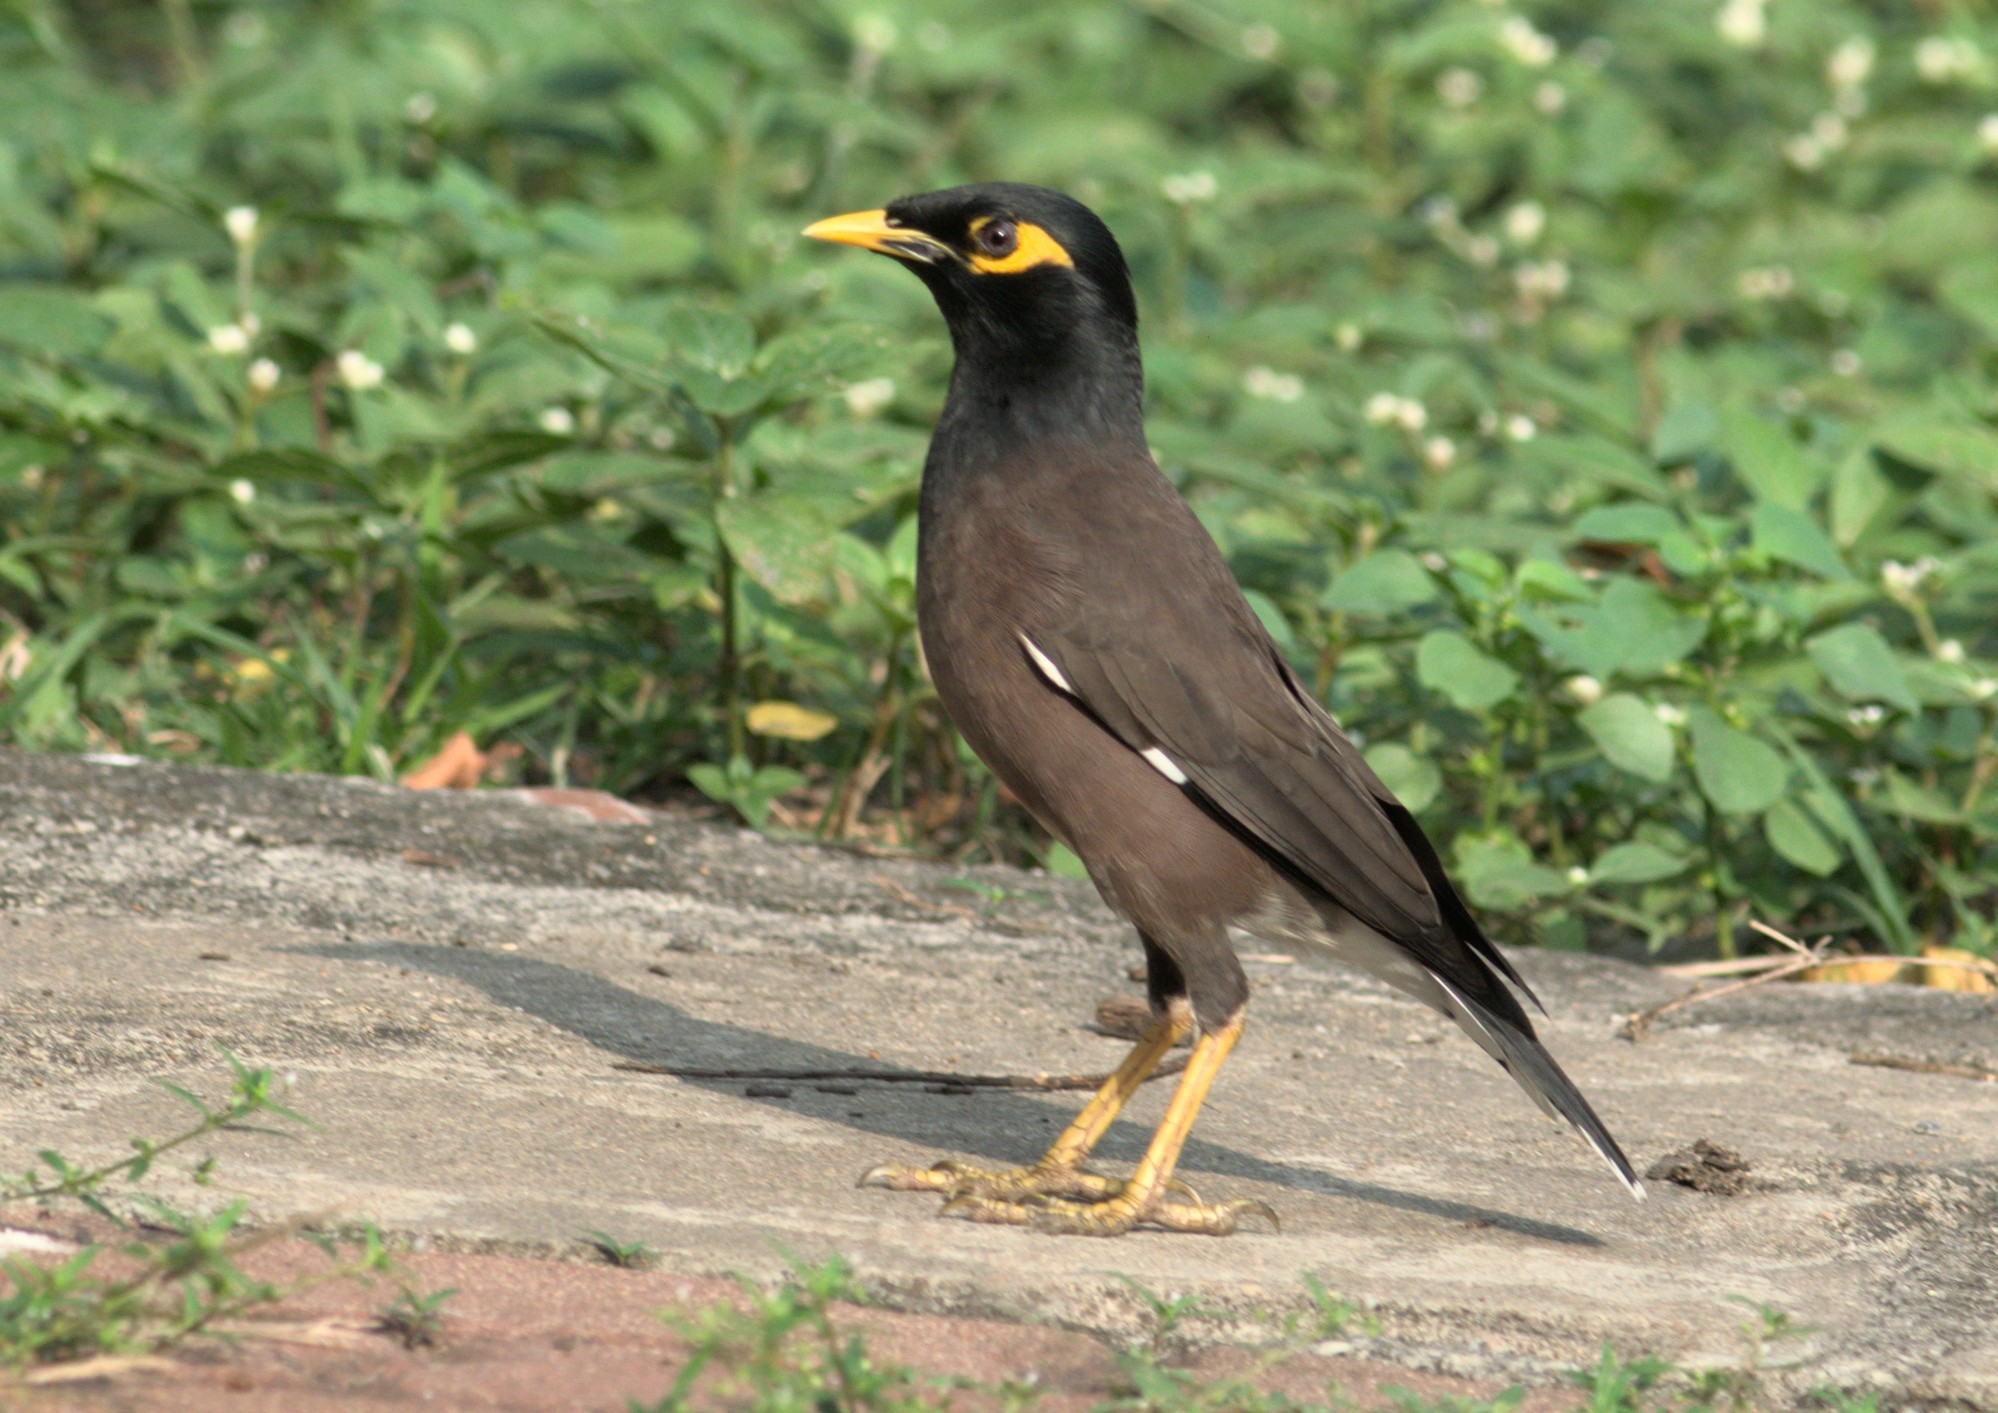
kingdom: Animalia
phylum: Chordata
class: Aves
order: Passeriformes
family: Sturnidae
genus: Acridotheres
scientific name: Acridotheres tristis
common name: Common myna
